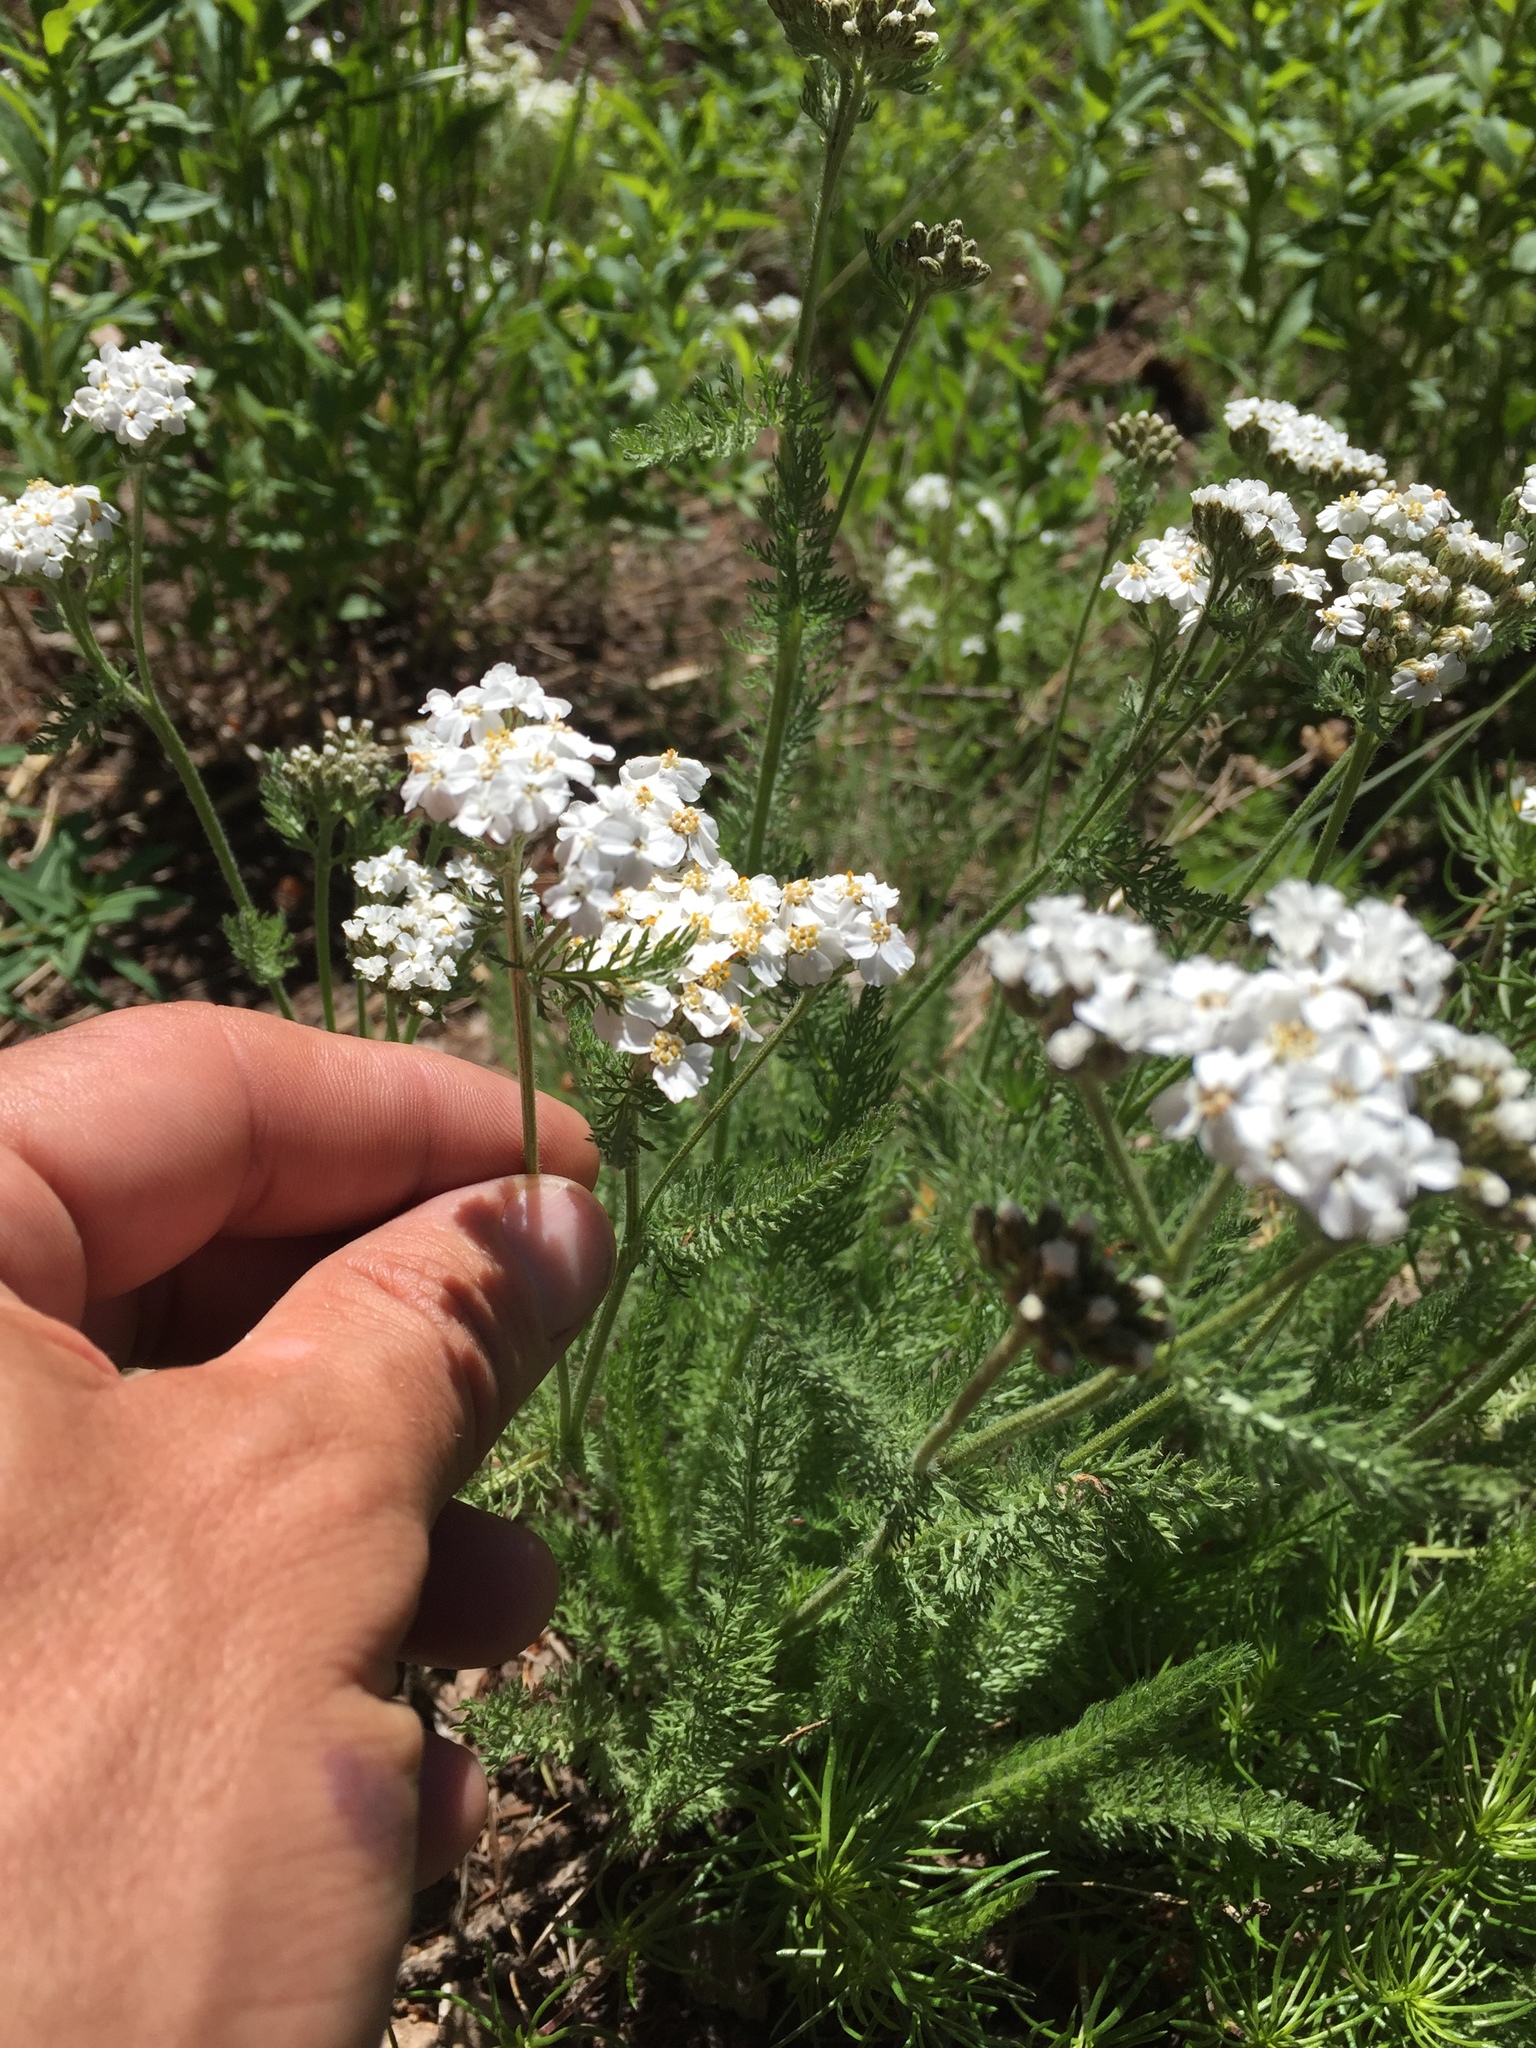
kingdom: Plantae
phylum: Tracheophyta
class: Magnoliopsida
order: Asterales
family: Asteraceae
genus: Achillea
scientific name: Achillea millefolium
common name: Yarrow
